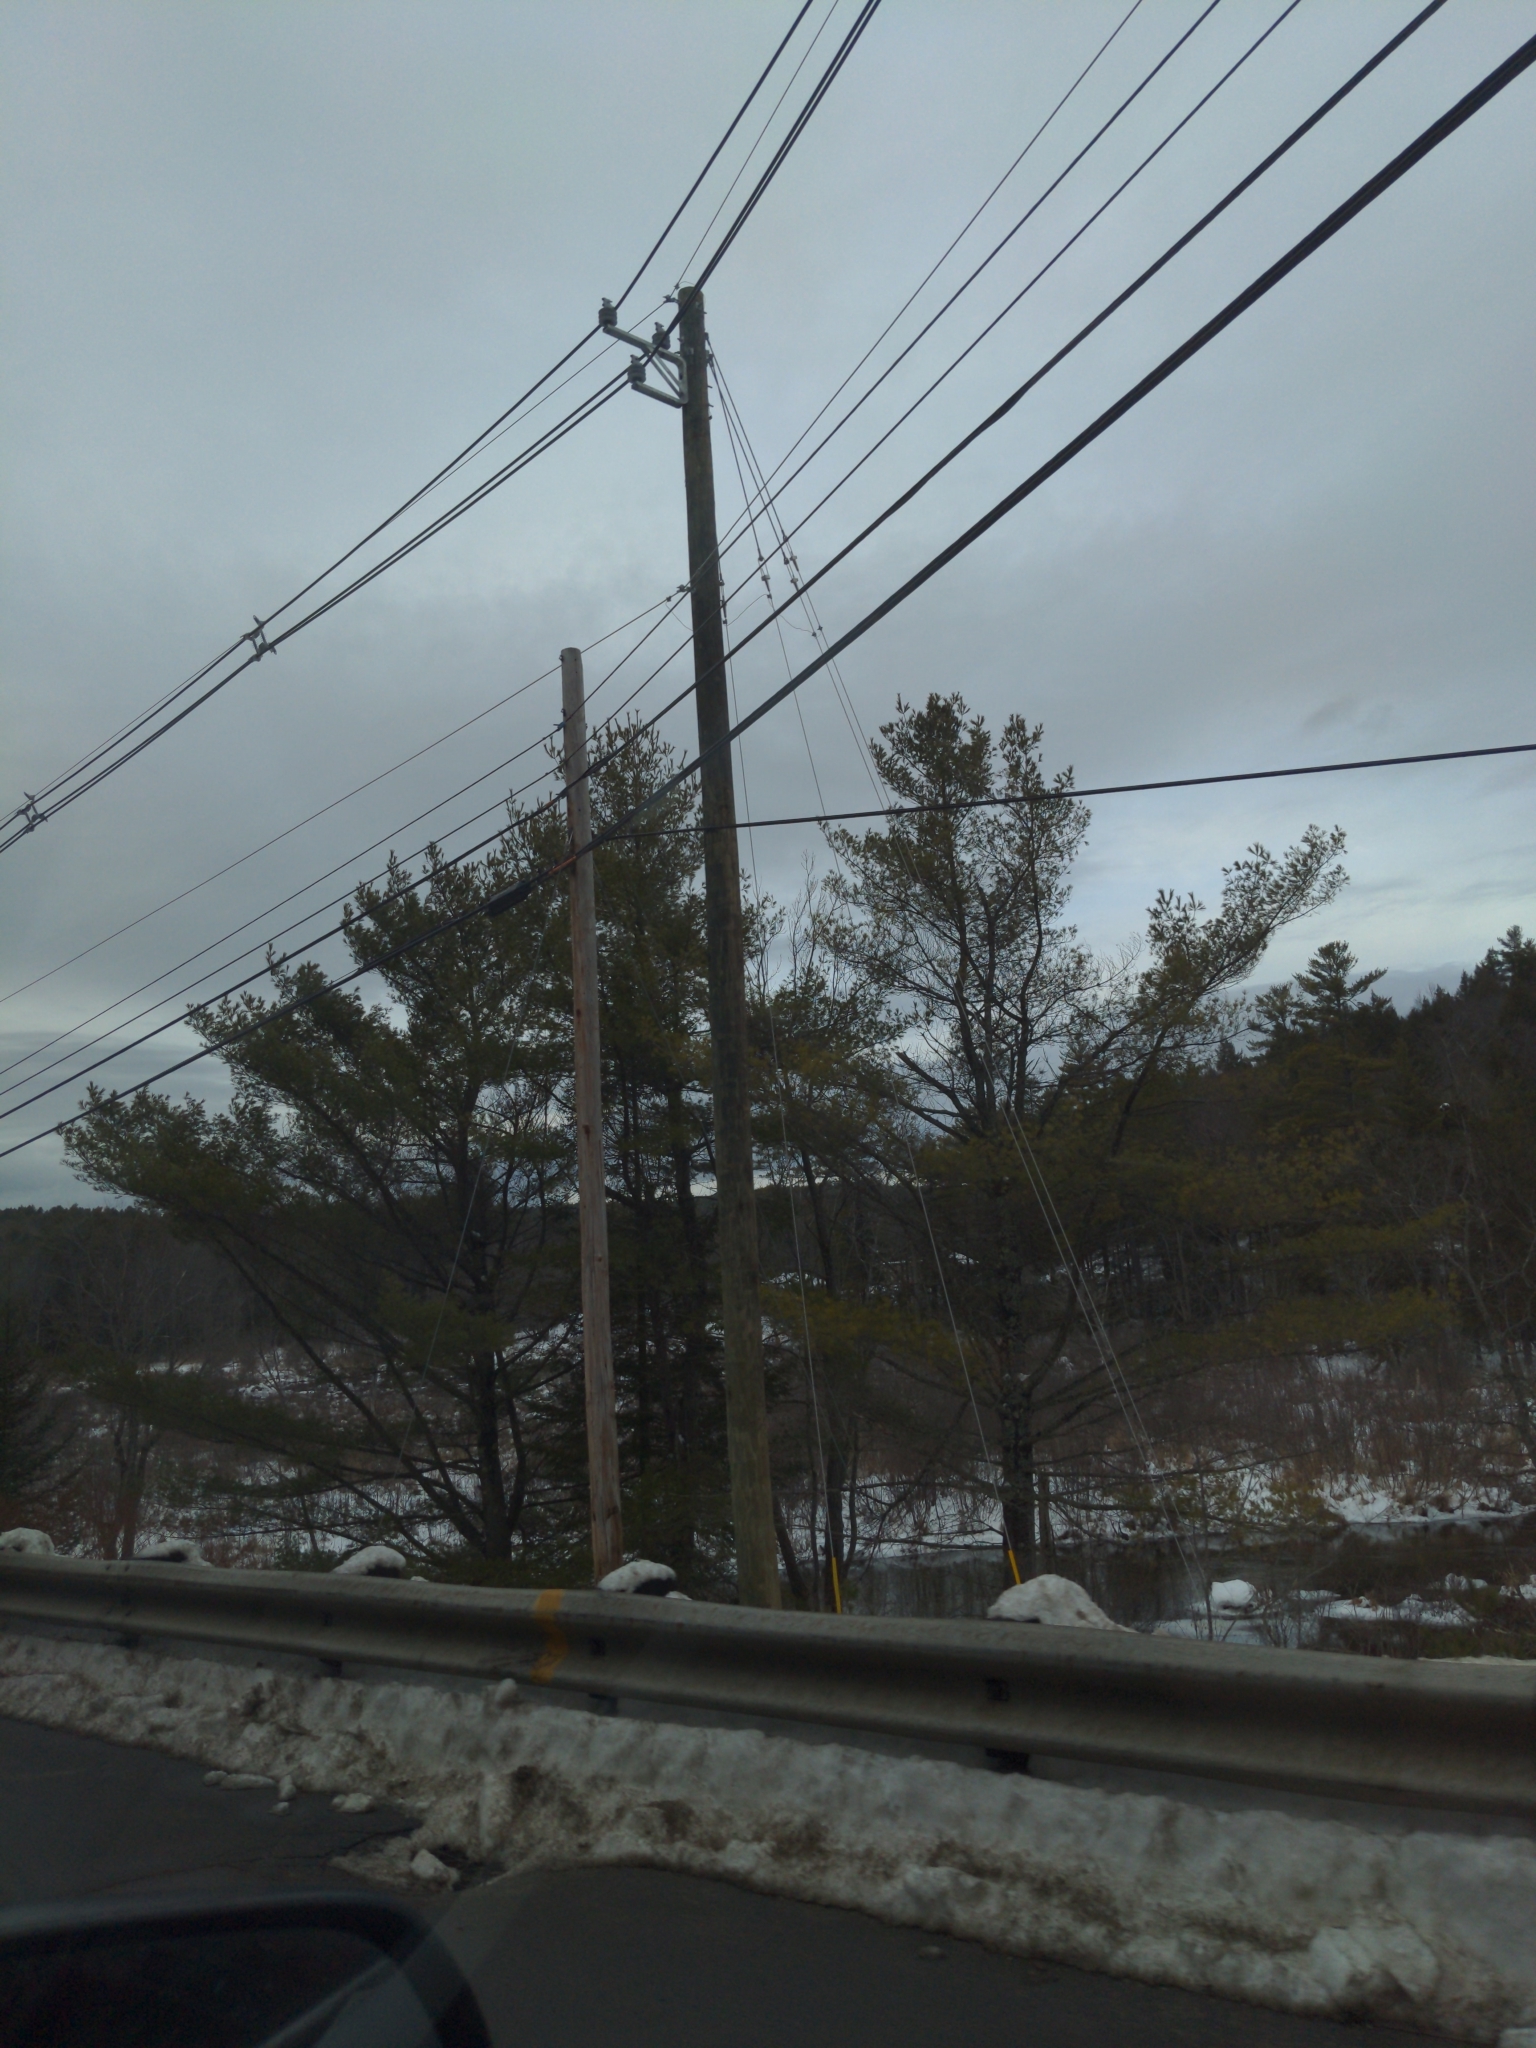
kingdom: Plantae
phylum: Tracheophyta
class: Pinopsida
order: Pinales
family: Pinaceae
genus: Pinus
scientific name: Pinus strobus
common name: Weymouth pine
